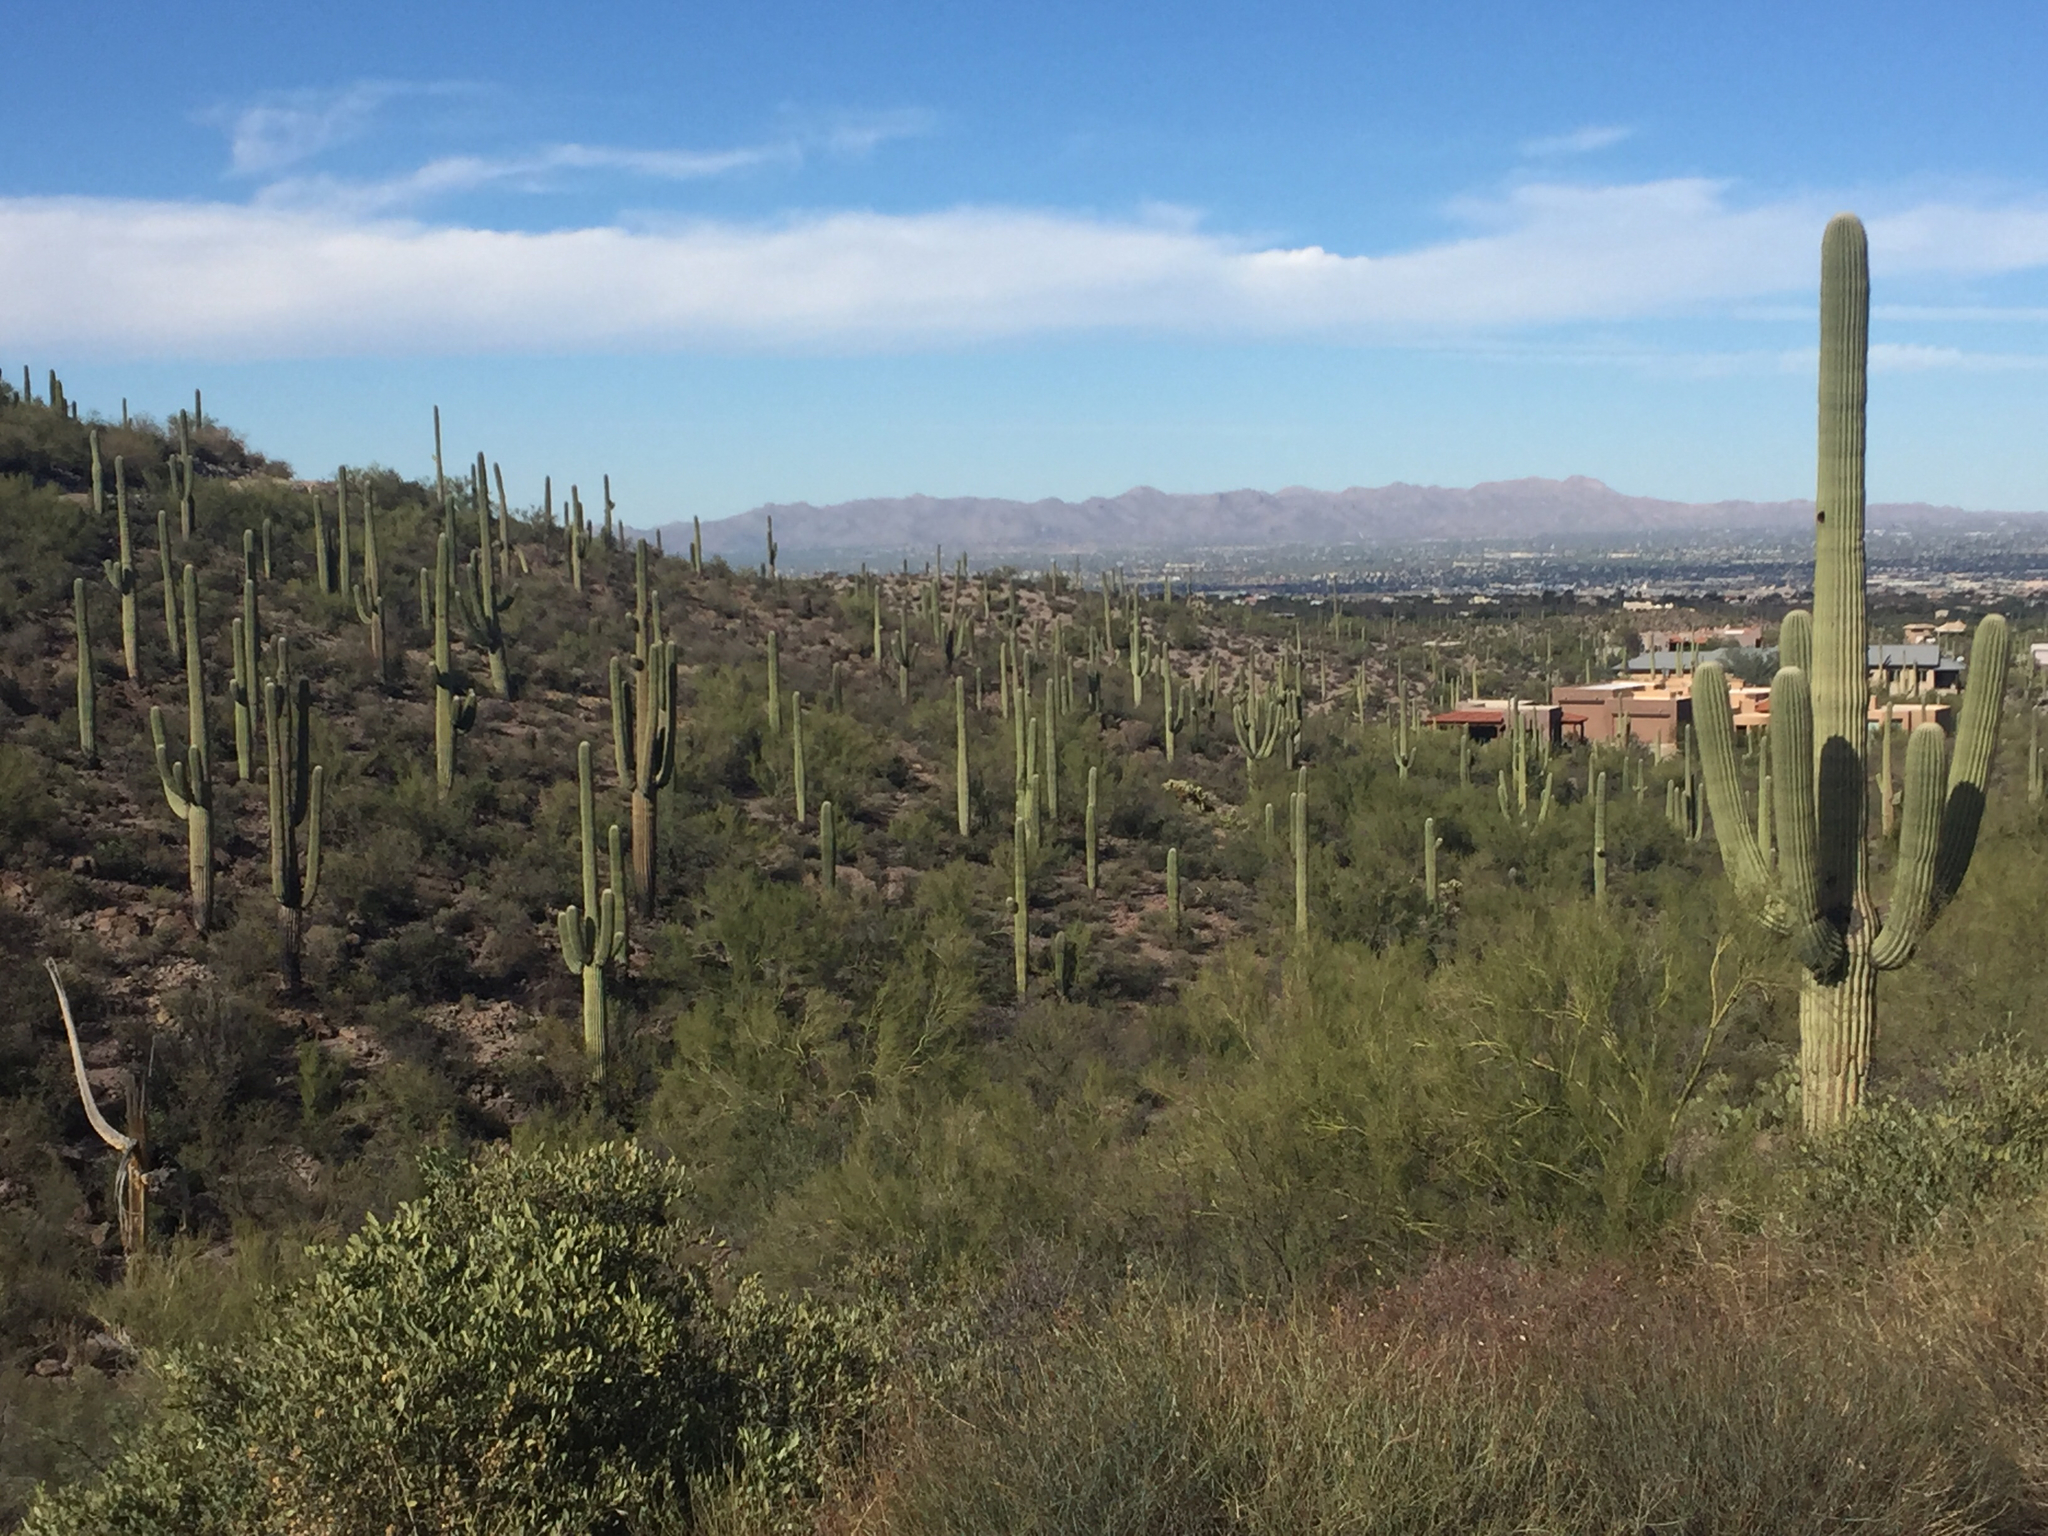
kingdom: Plantae
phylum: Tracheophyta
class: Magnoliopsida
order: Caryophyllales
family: Cactaceae
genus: Carnegiea
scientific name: Carnegiea gigantea
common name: Saguaro
